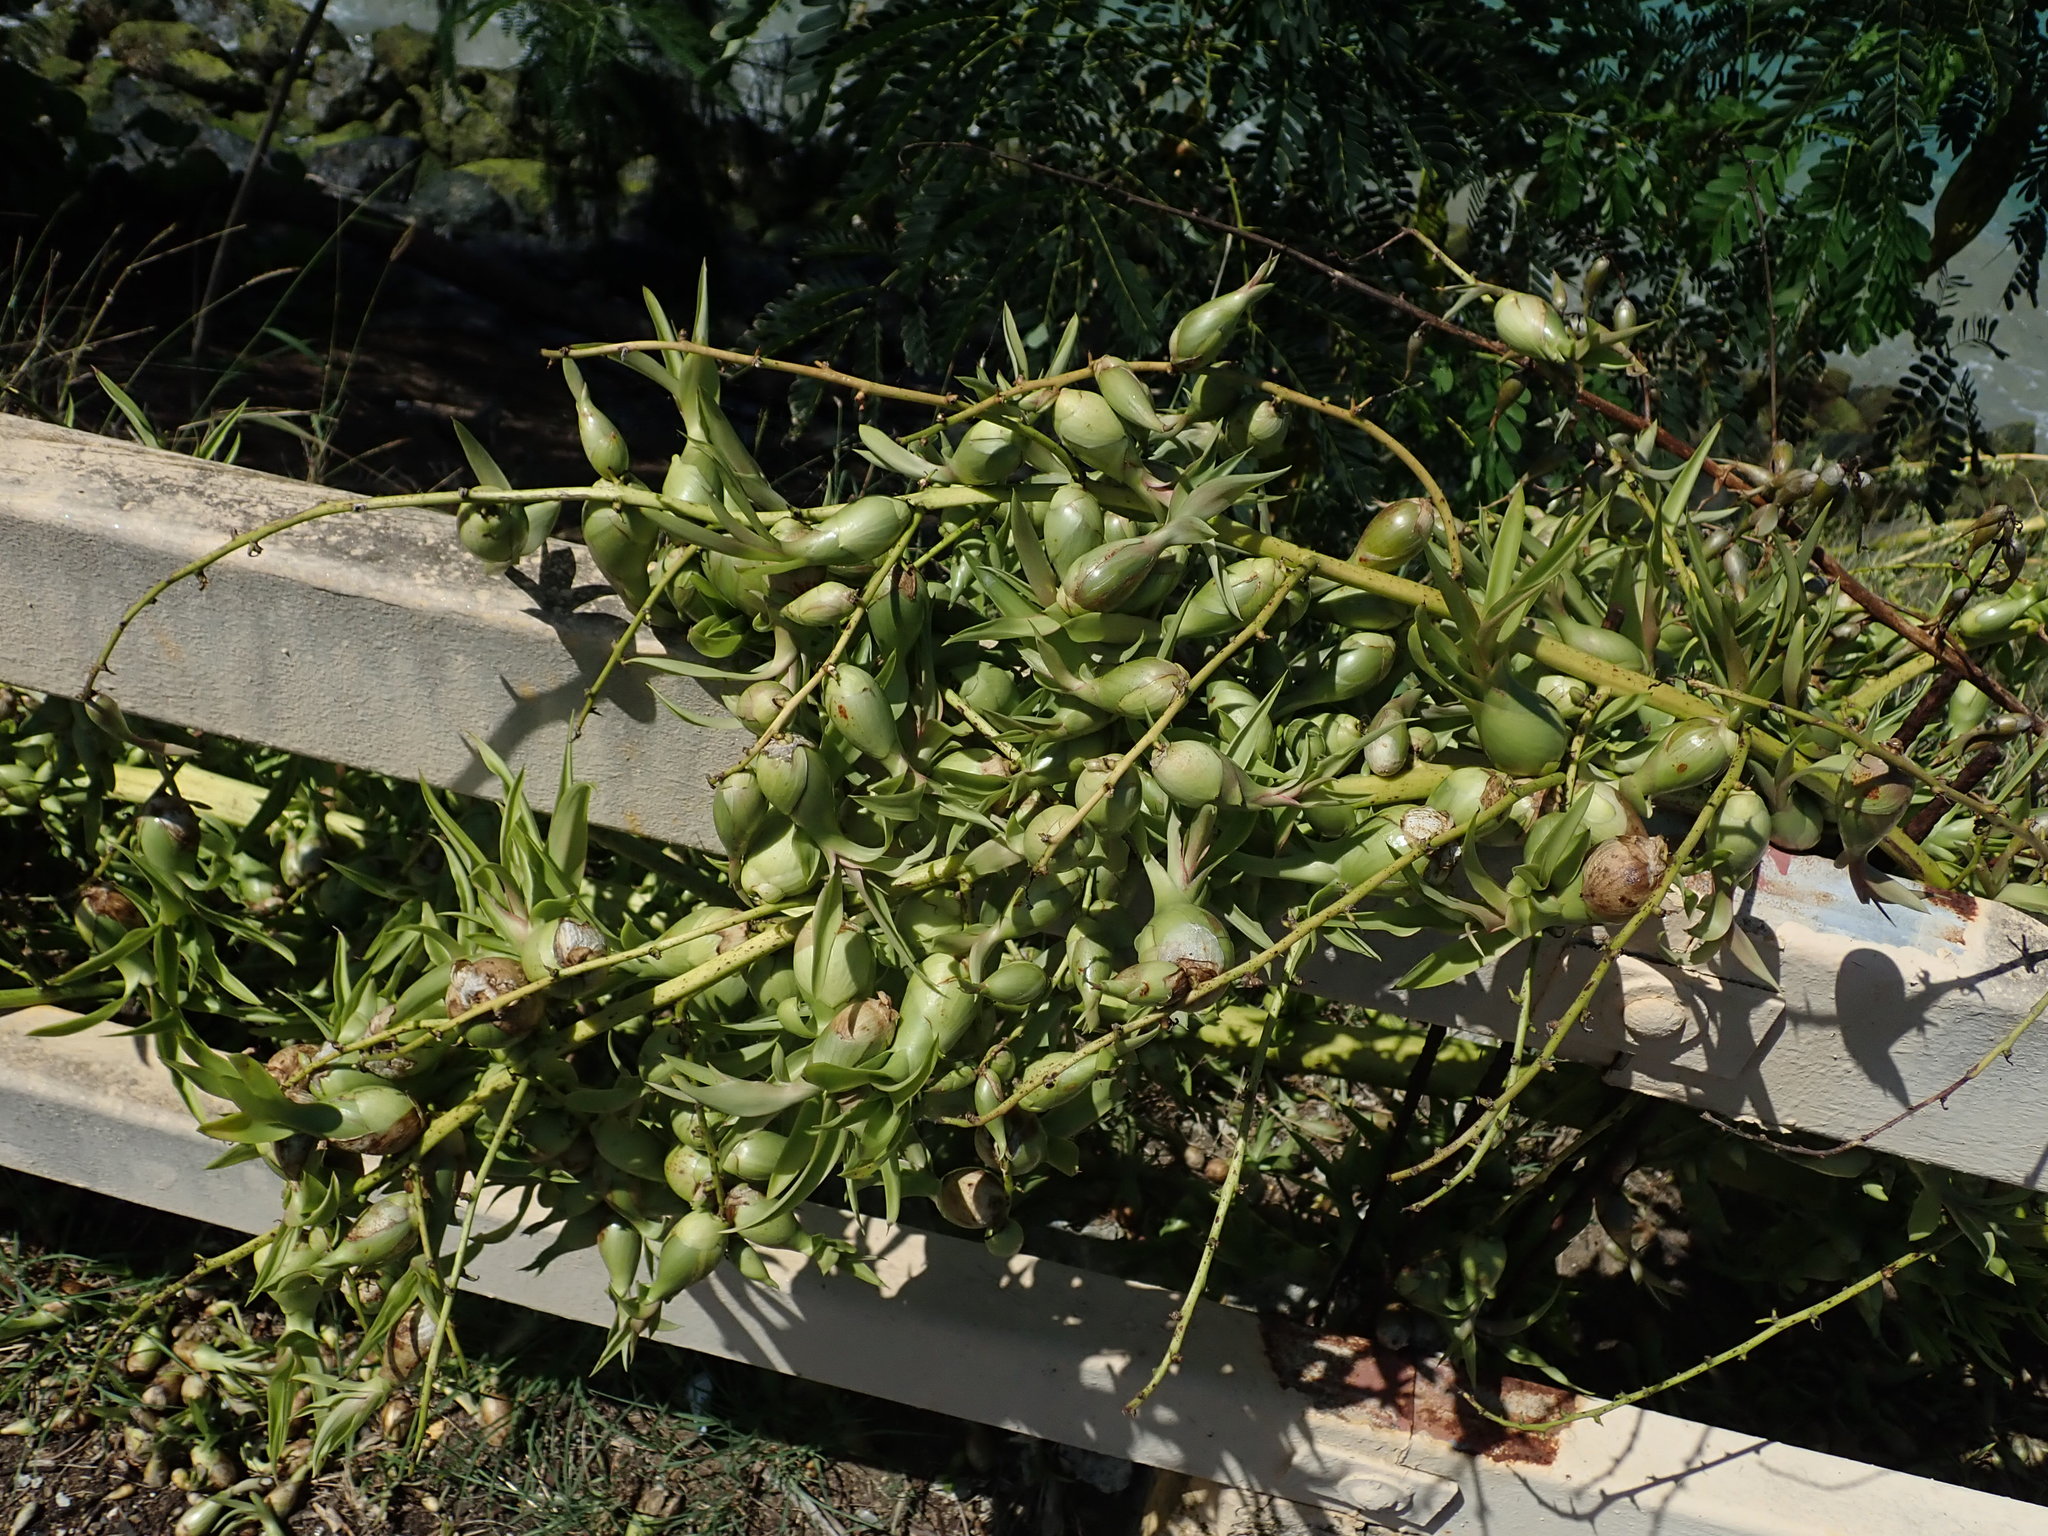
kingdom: Plantae
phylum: Tracheophyta
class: Liliopsida
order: Asparagales
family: Asparagaceae
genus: Furcraea
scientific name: Furcraea tuberosa
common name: Karata
